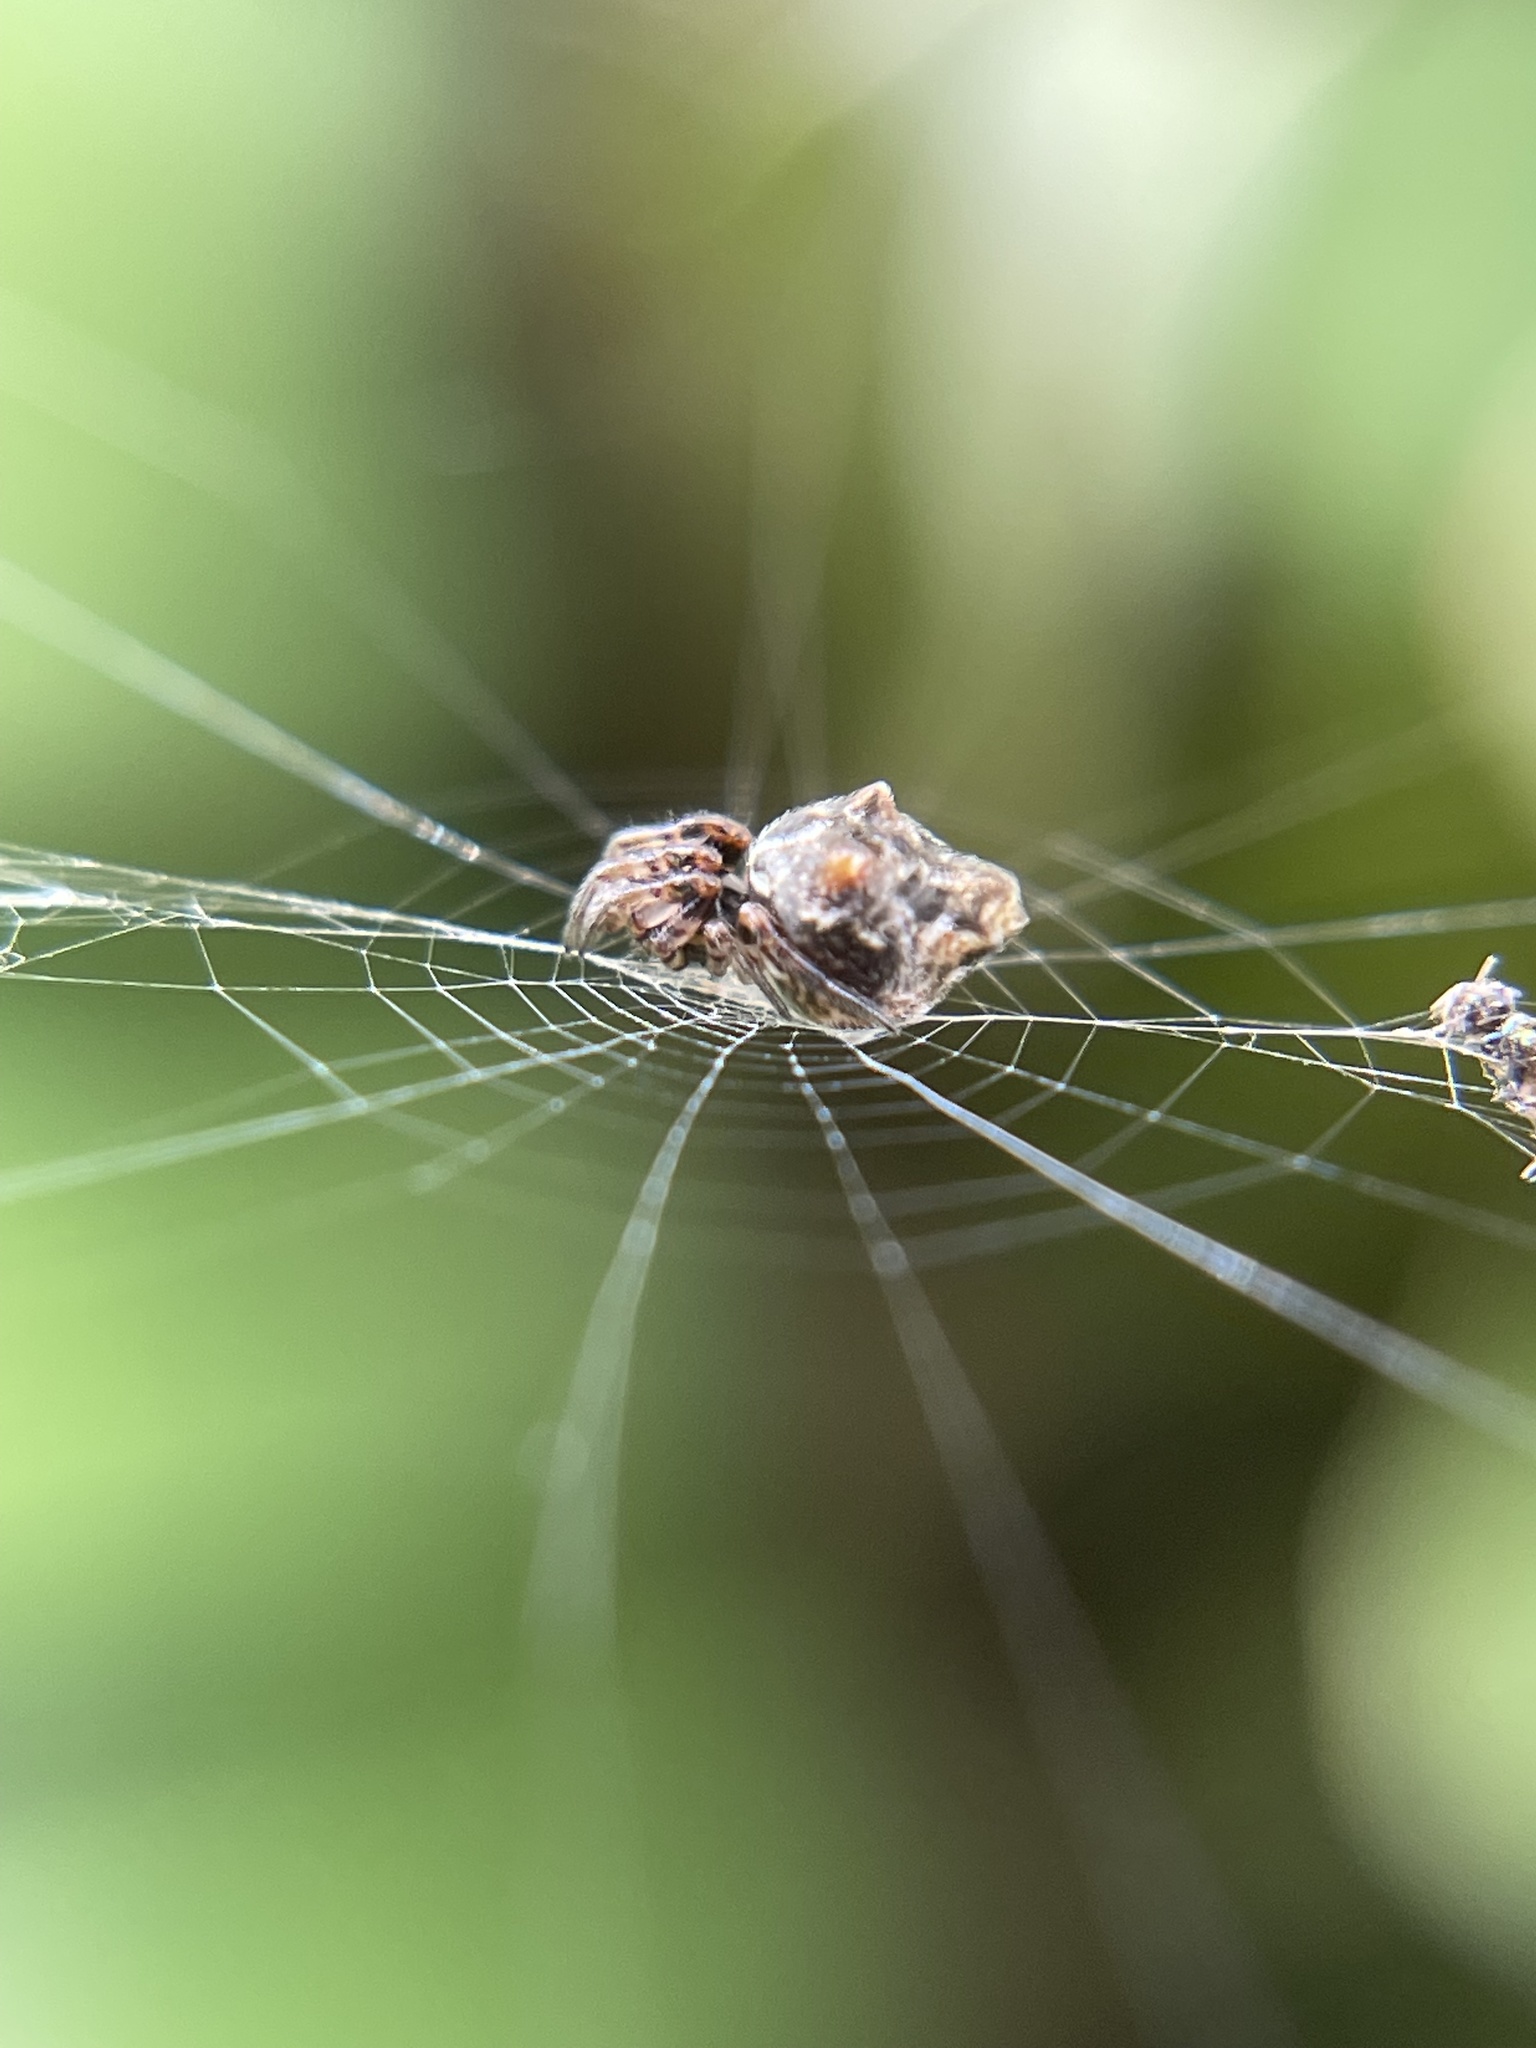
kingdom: Animalia
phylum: Arthropoda
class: Arachnida
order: Araneae
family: Araneidae
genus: Cyclosa
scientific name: Cyclosa walckenaeri
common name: Orb weavers
